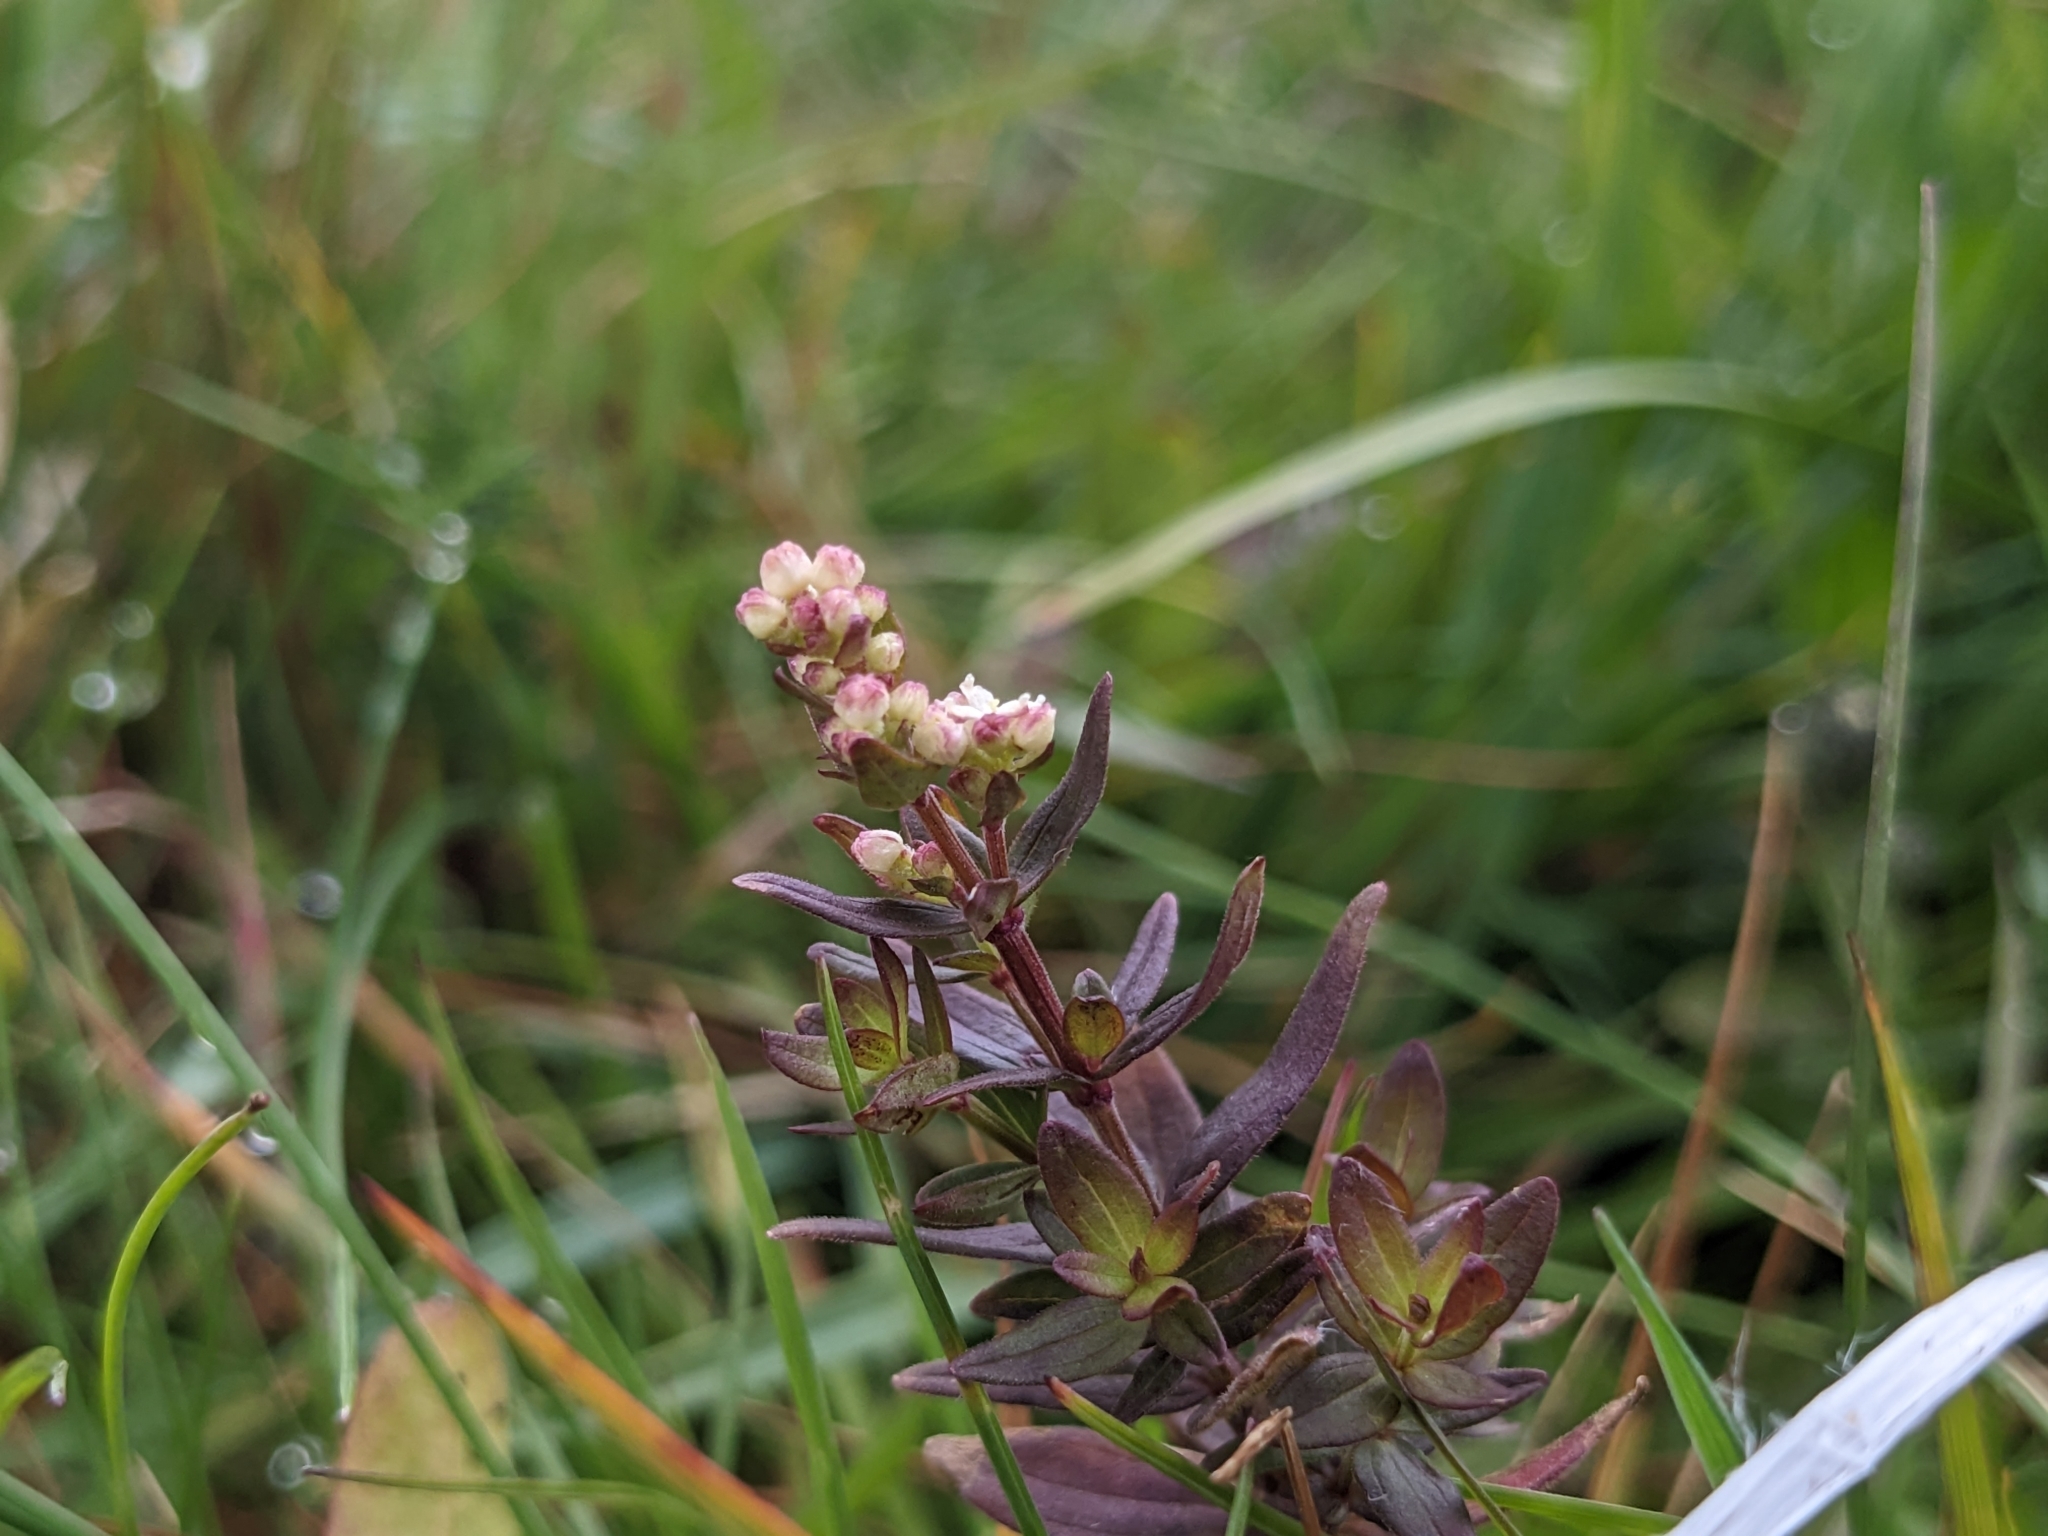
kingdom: Plantae
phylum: Tracheophyta
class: Magnoliopsida
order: Gentianales
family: Rubiaceae
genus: Galium
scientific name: Galium boreale
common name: Northern bedstraw
